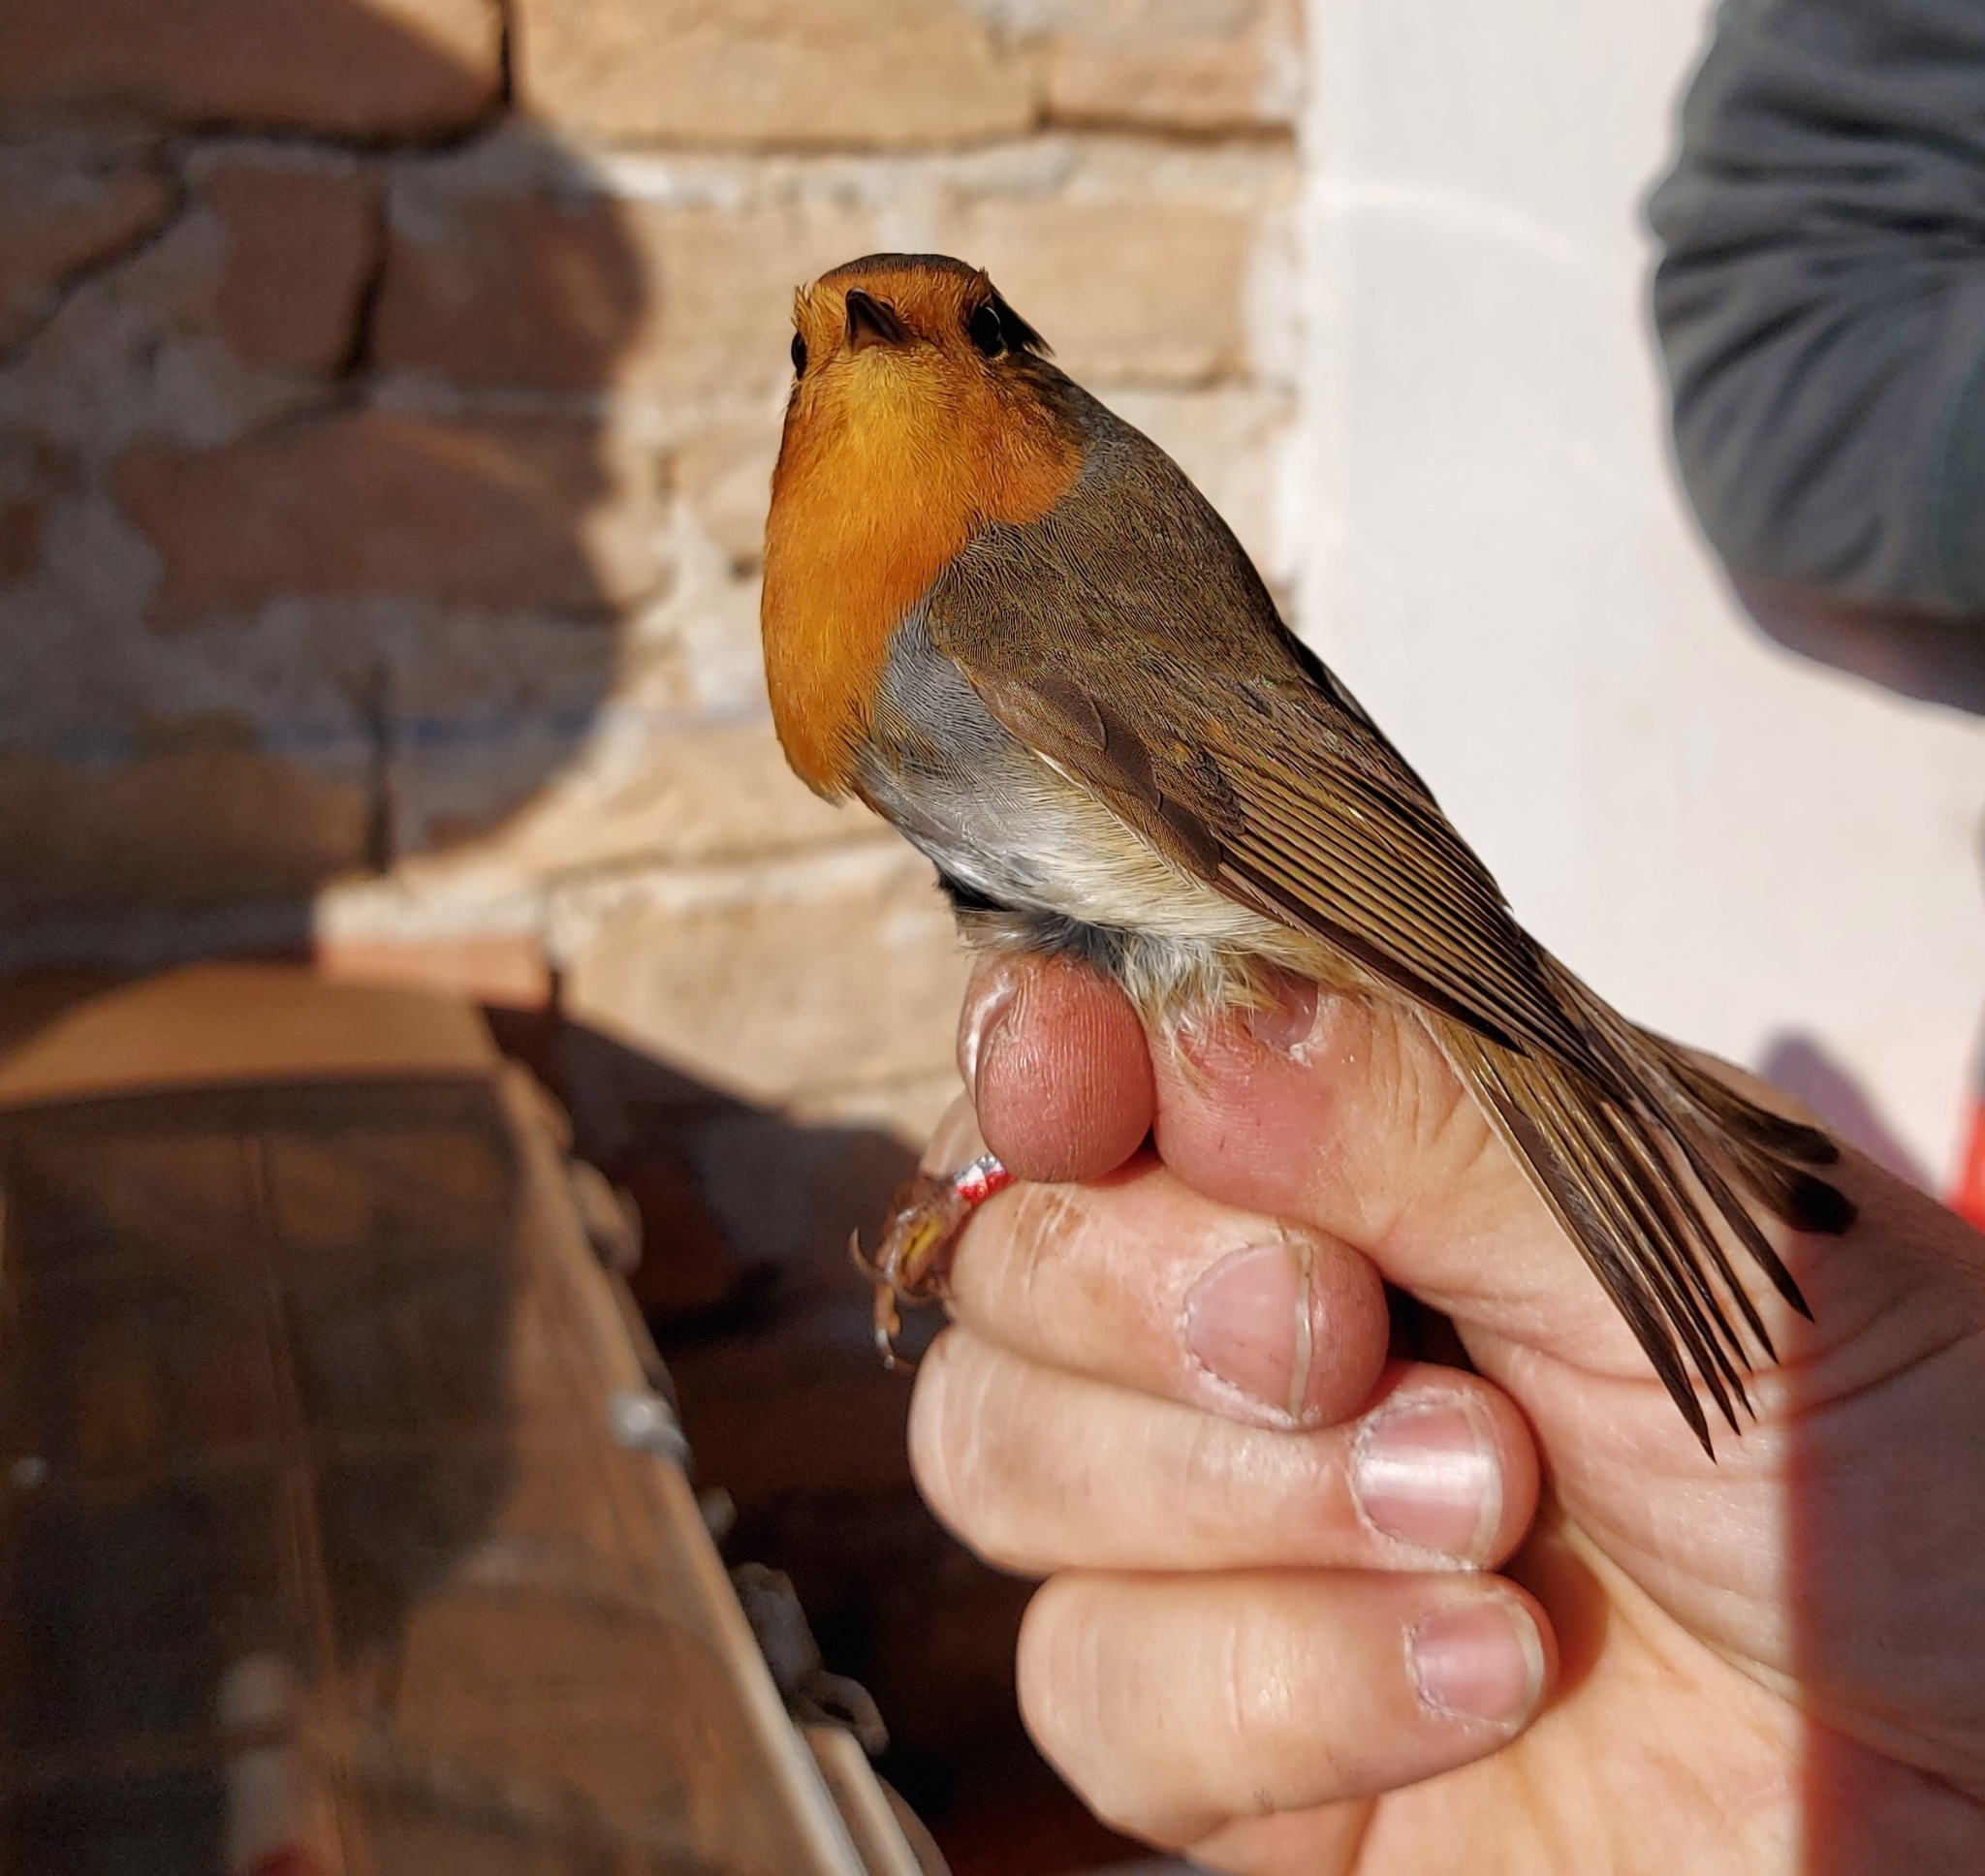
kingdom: Animalia
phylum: Chordata
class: Aves
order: Passeriformes
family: Muscicapidae
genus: Erithacus
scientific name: Erithacus rubecula
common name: European robin
